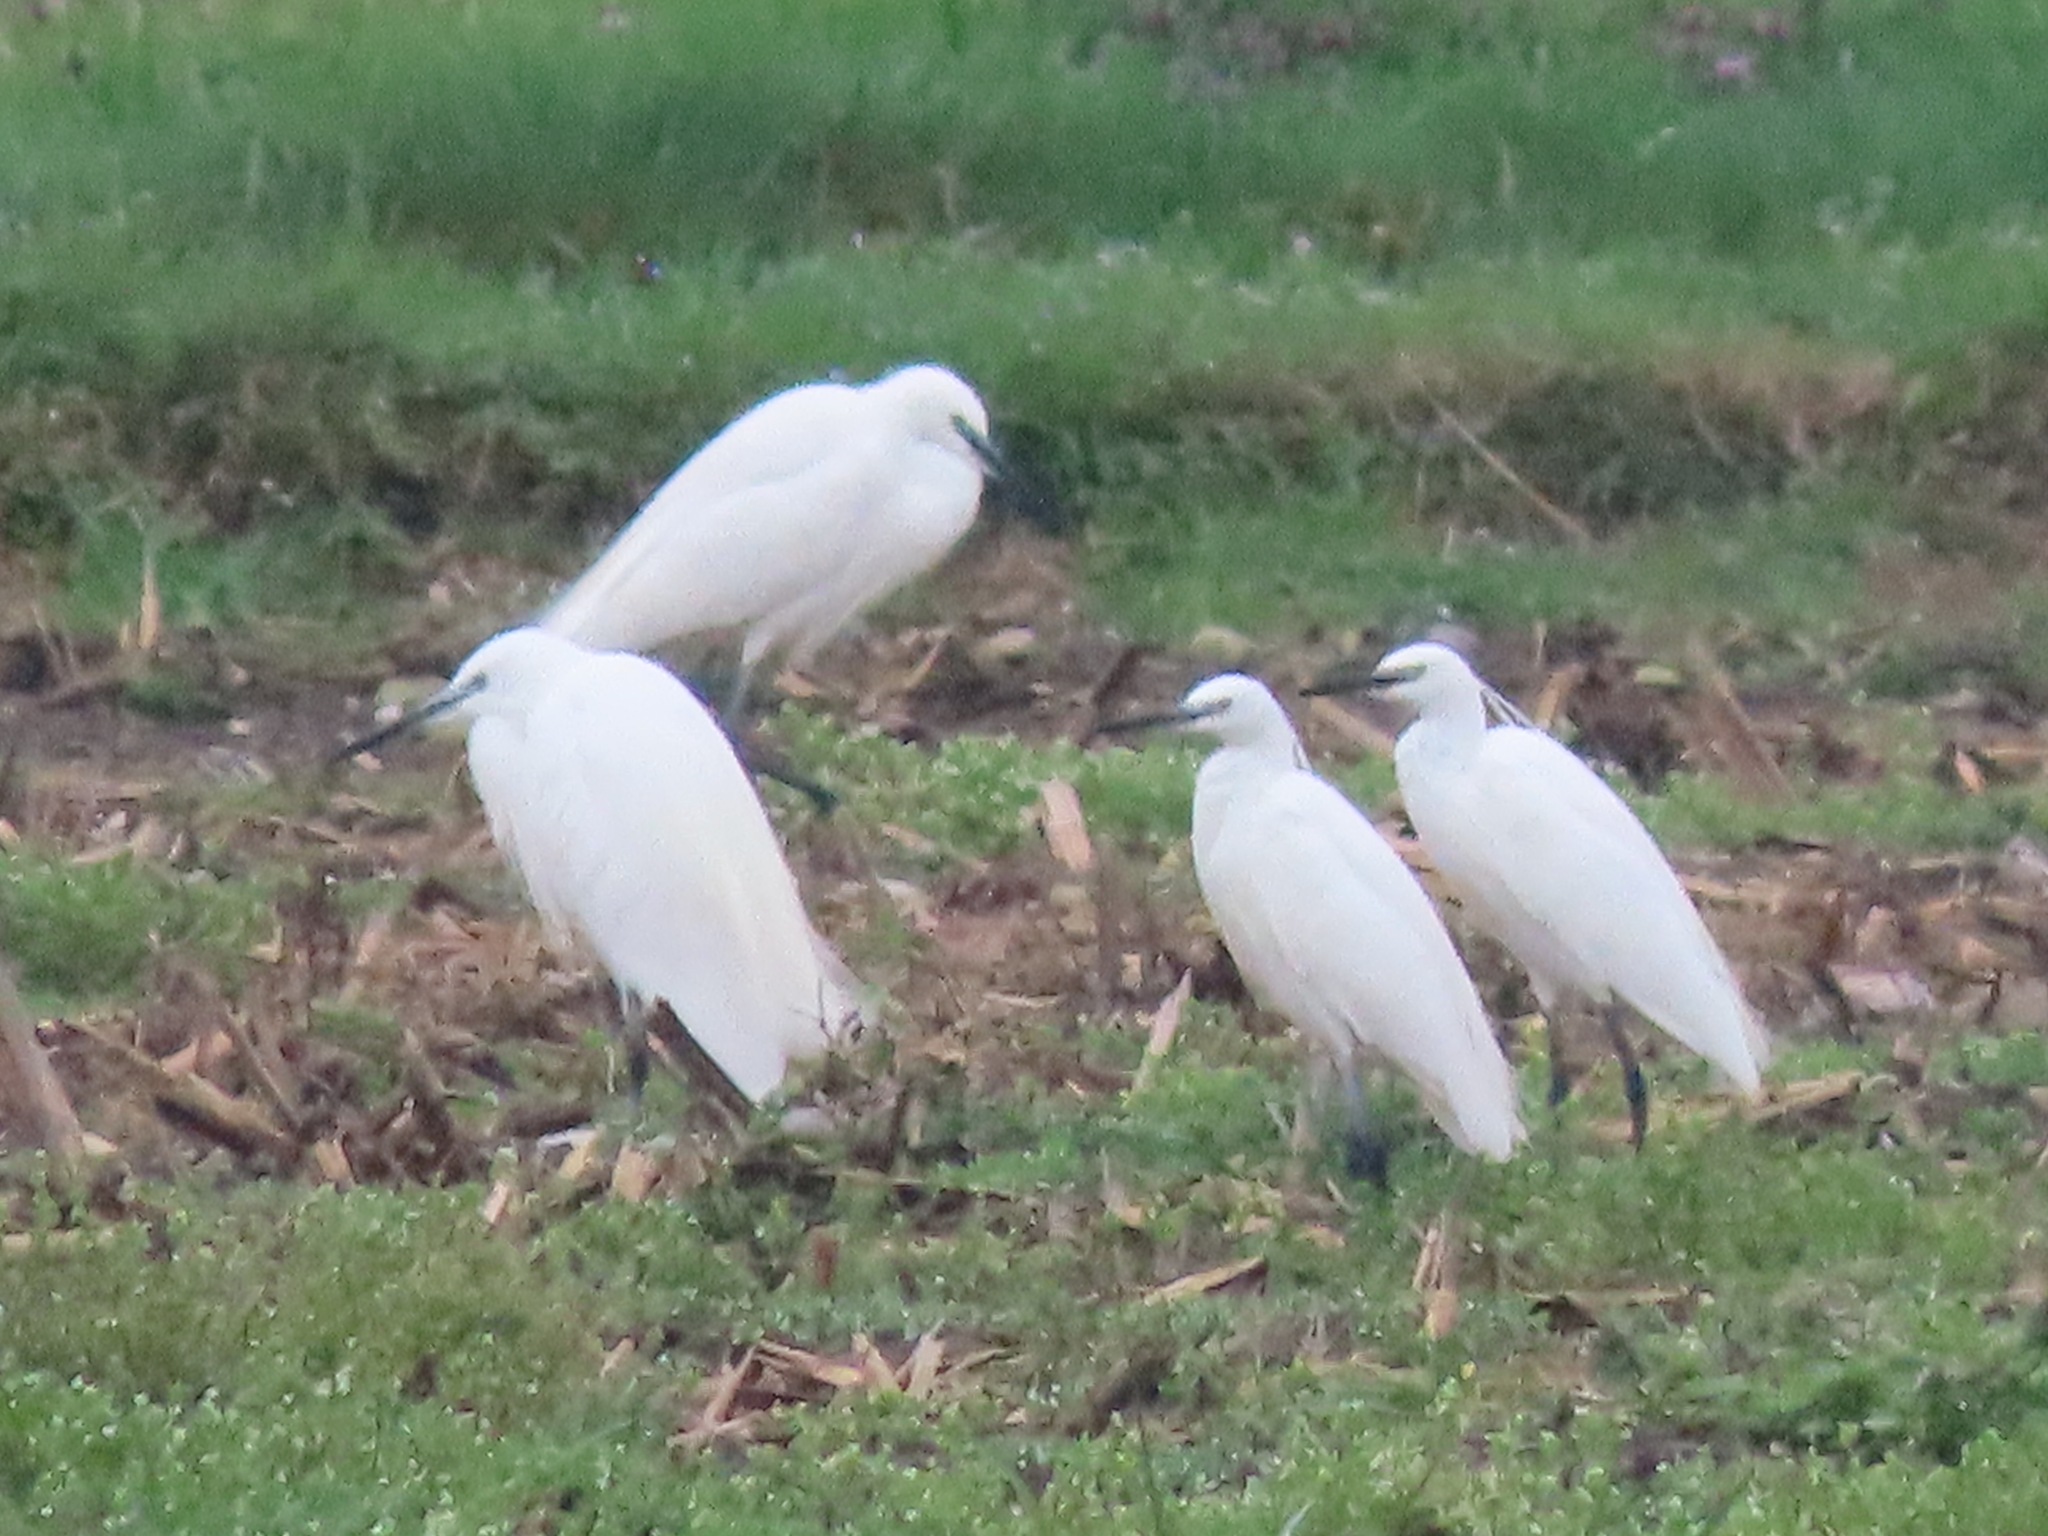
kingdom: Animalia
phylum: Chordata
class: Aves
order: Pelecaniformes
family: Ardeidae
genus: Egretta
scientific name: Egretta garzetta
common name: Little egret
